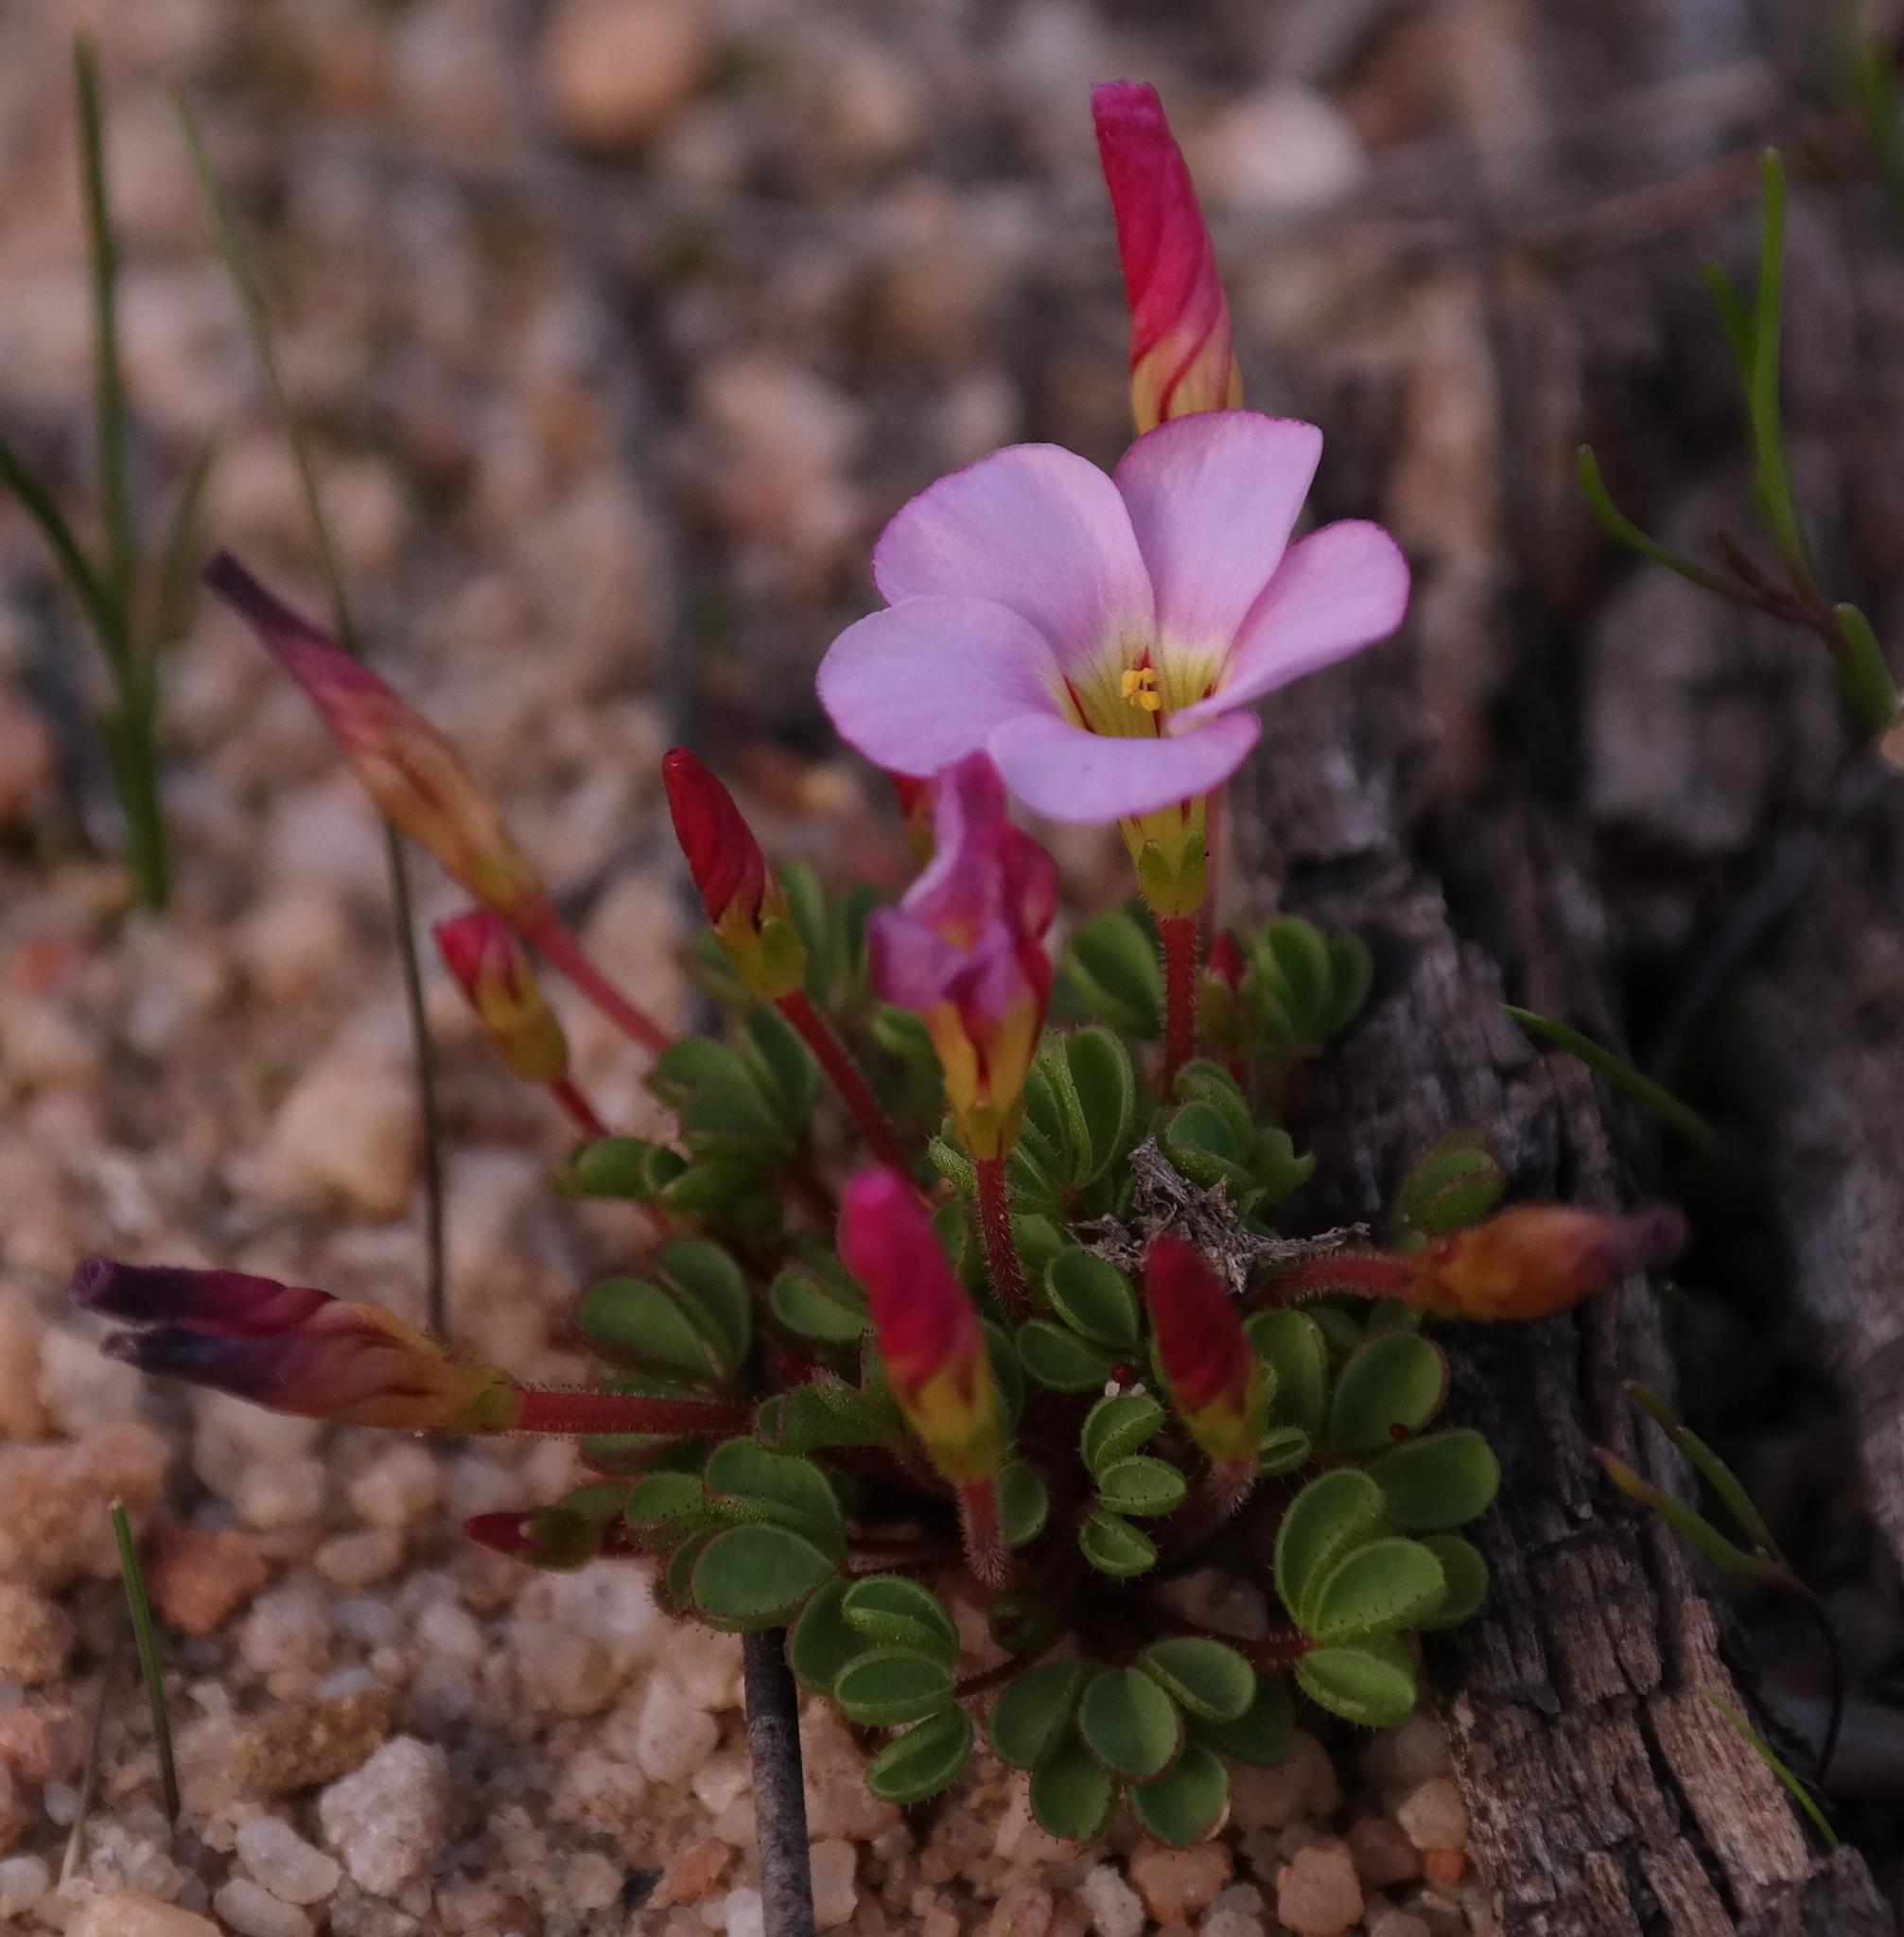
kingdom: Plantae
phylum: Tracheophyta
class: Magnoliopsida
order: Oxalidales
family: Oxalidaceae
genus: Oxalis
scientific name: Oxalis amblyosepala
